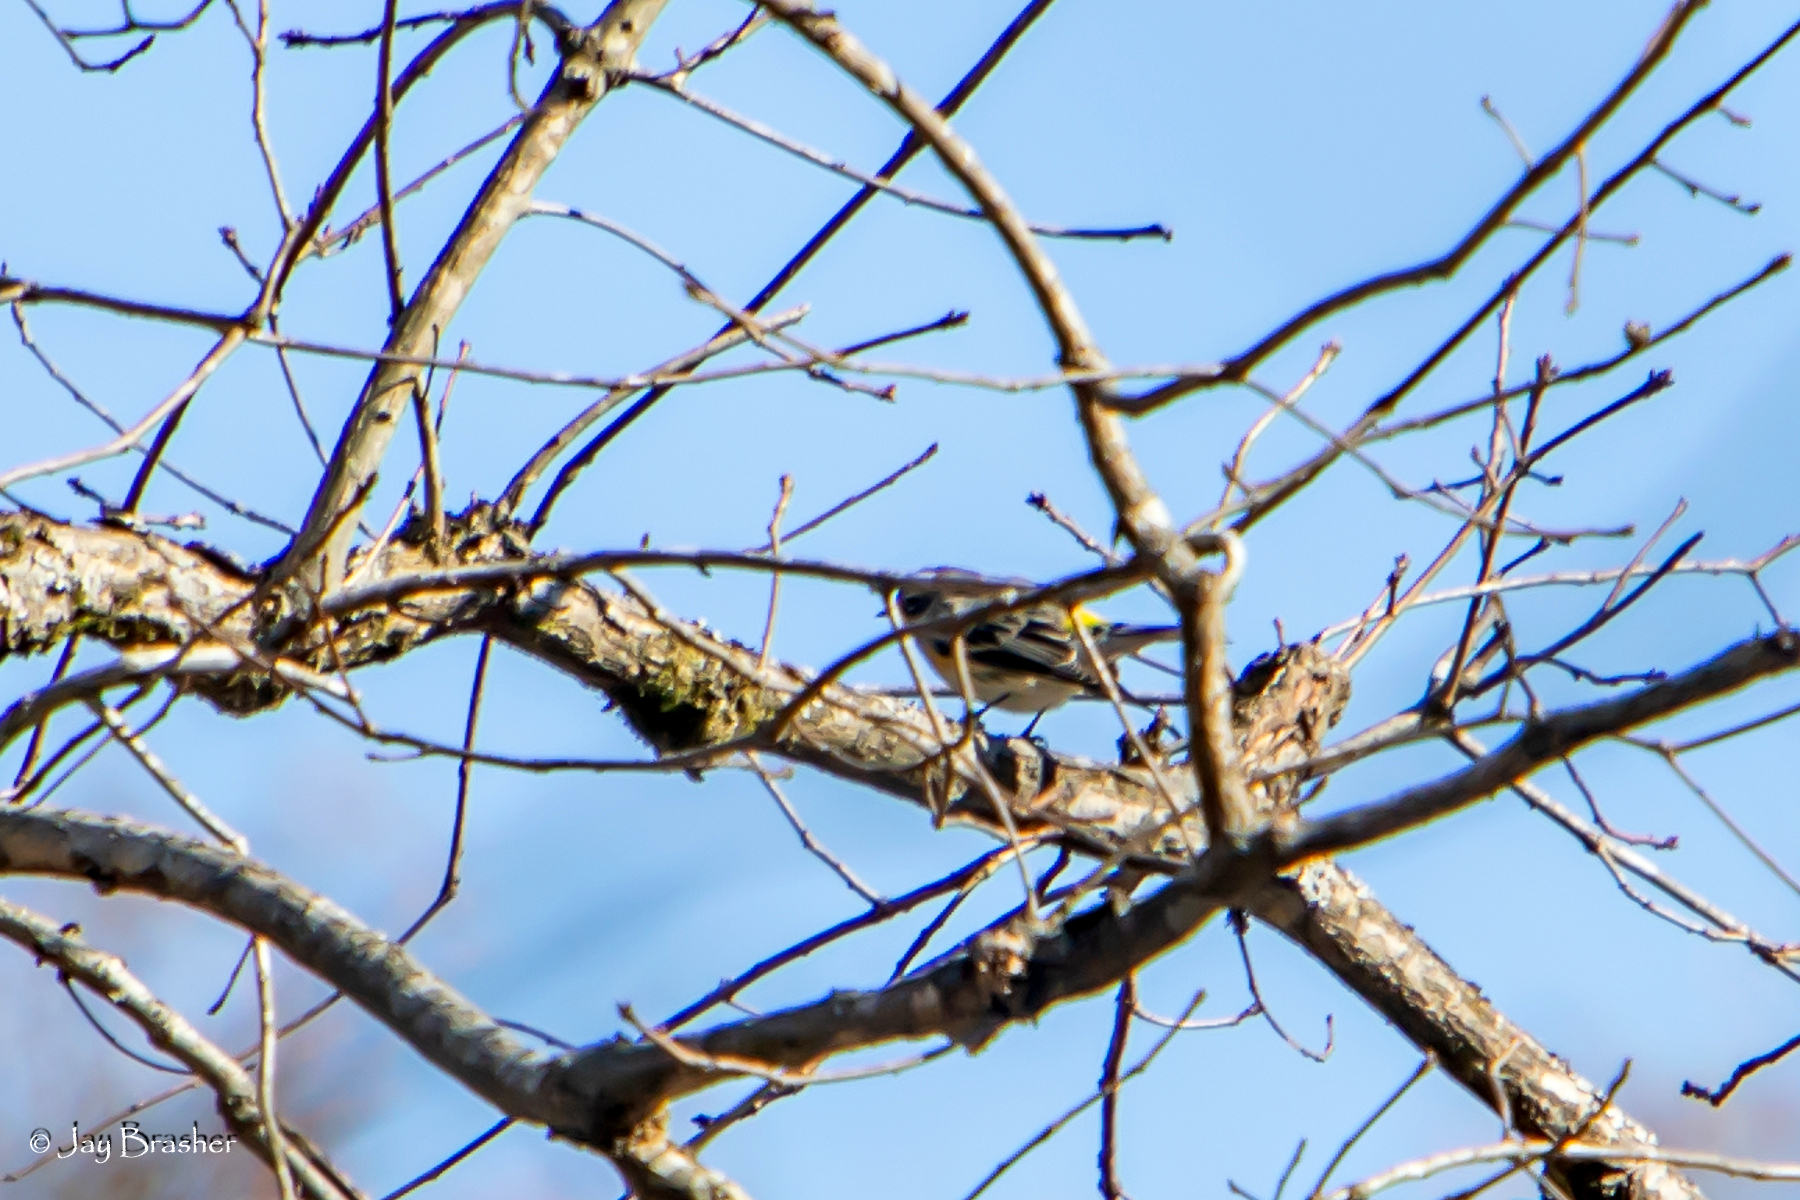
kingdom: Animalia
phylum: Chordata
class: Aves
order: Passeriformes
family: Parulidae
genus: Setophaga
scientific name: Setophaga coronata
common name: Myrtle warbler
